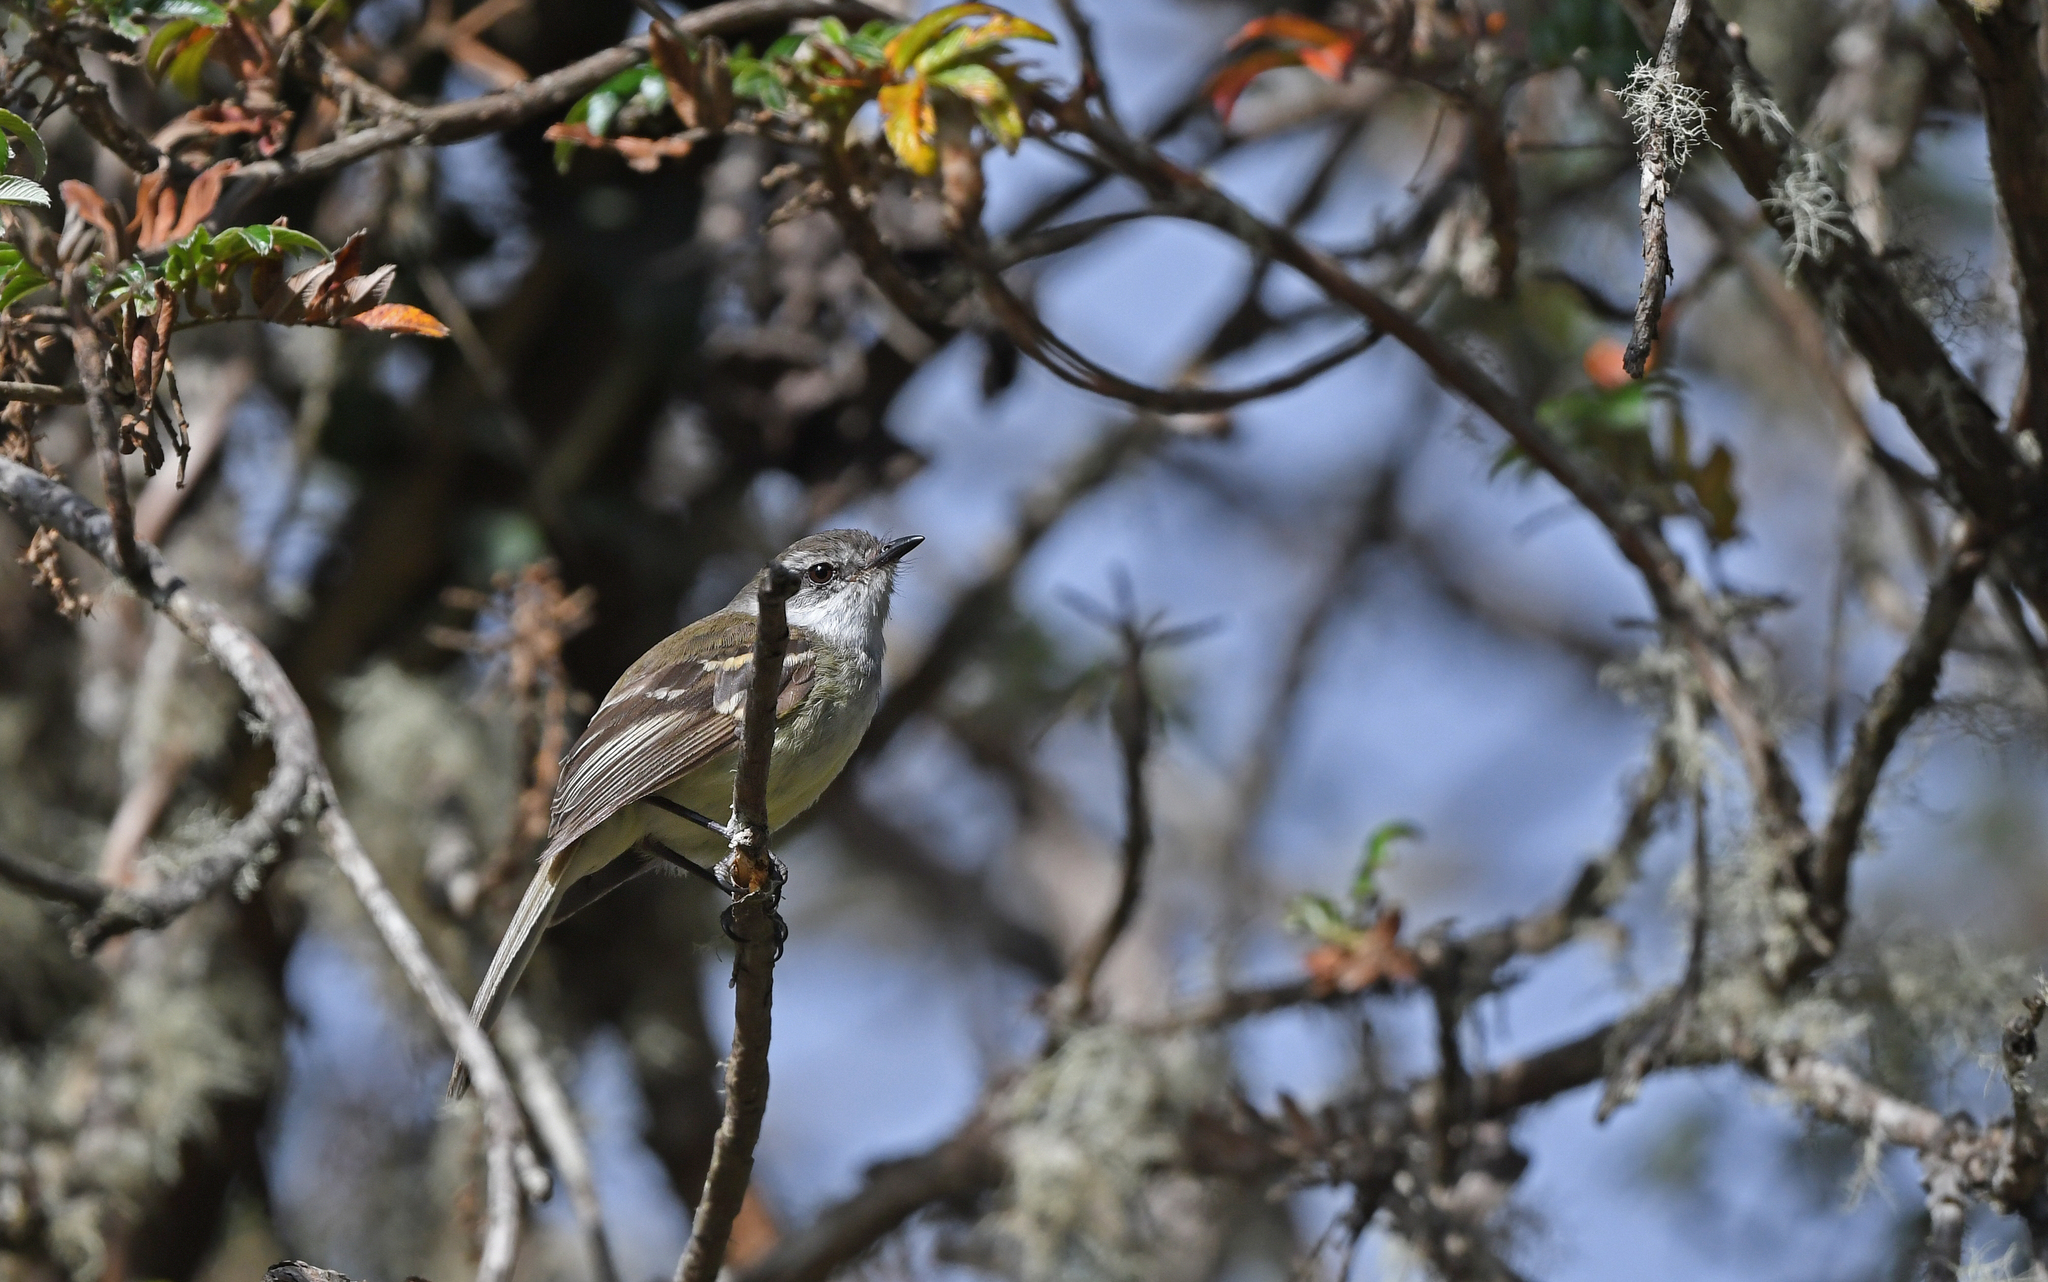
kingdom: Animalia
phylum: Chordata
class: Aves
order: Passeriformes
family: Tyrannidae
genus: Mecocerculus
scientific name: Mecocerculus leucophrys
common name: White-throated tyrannulet
